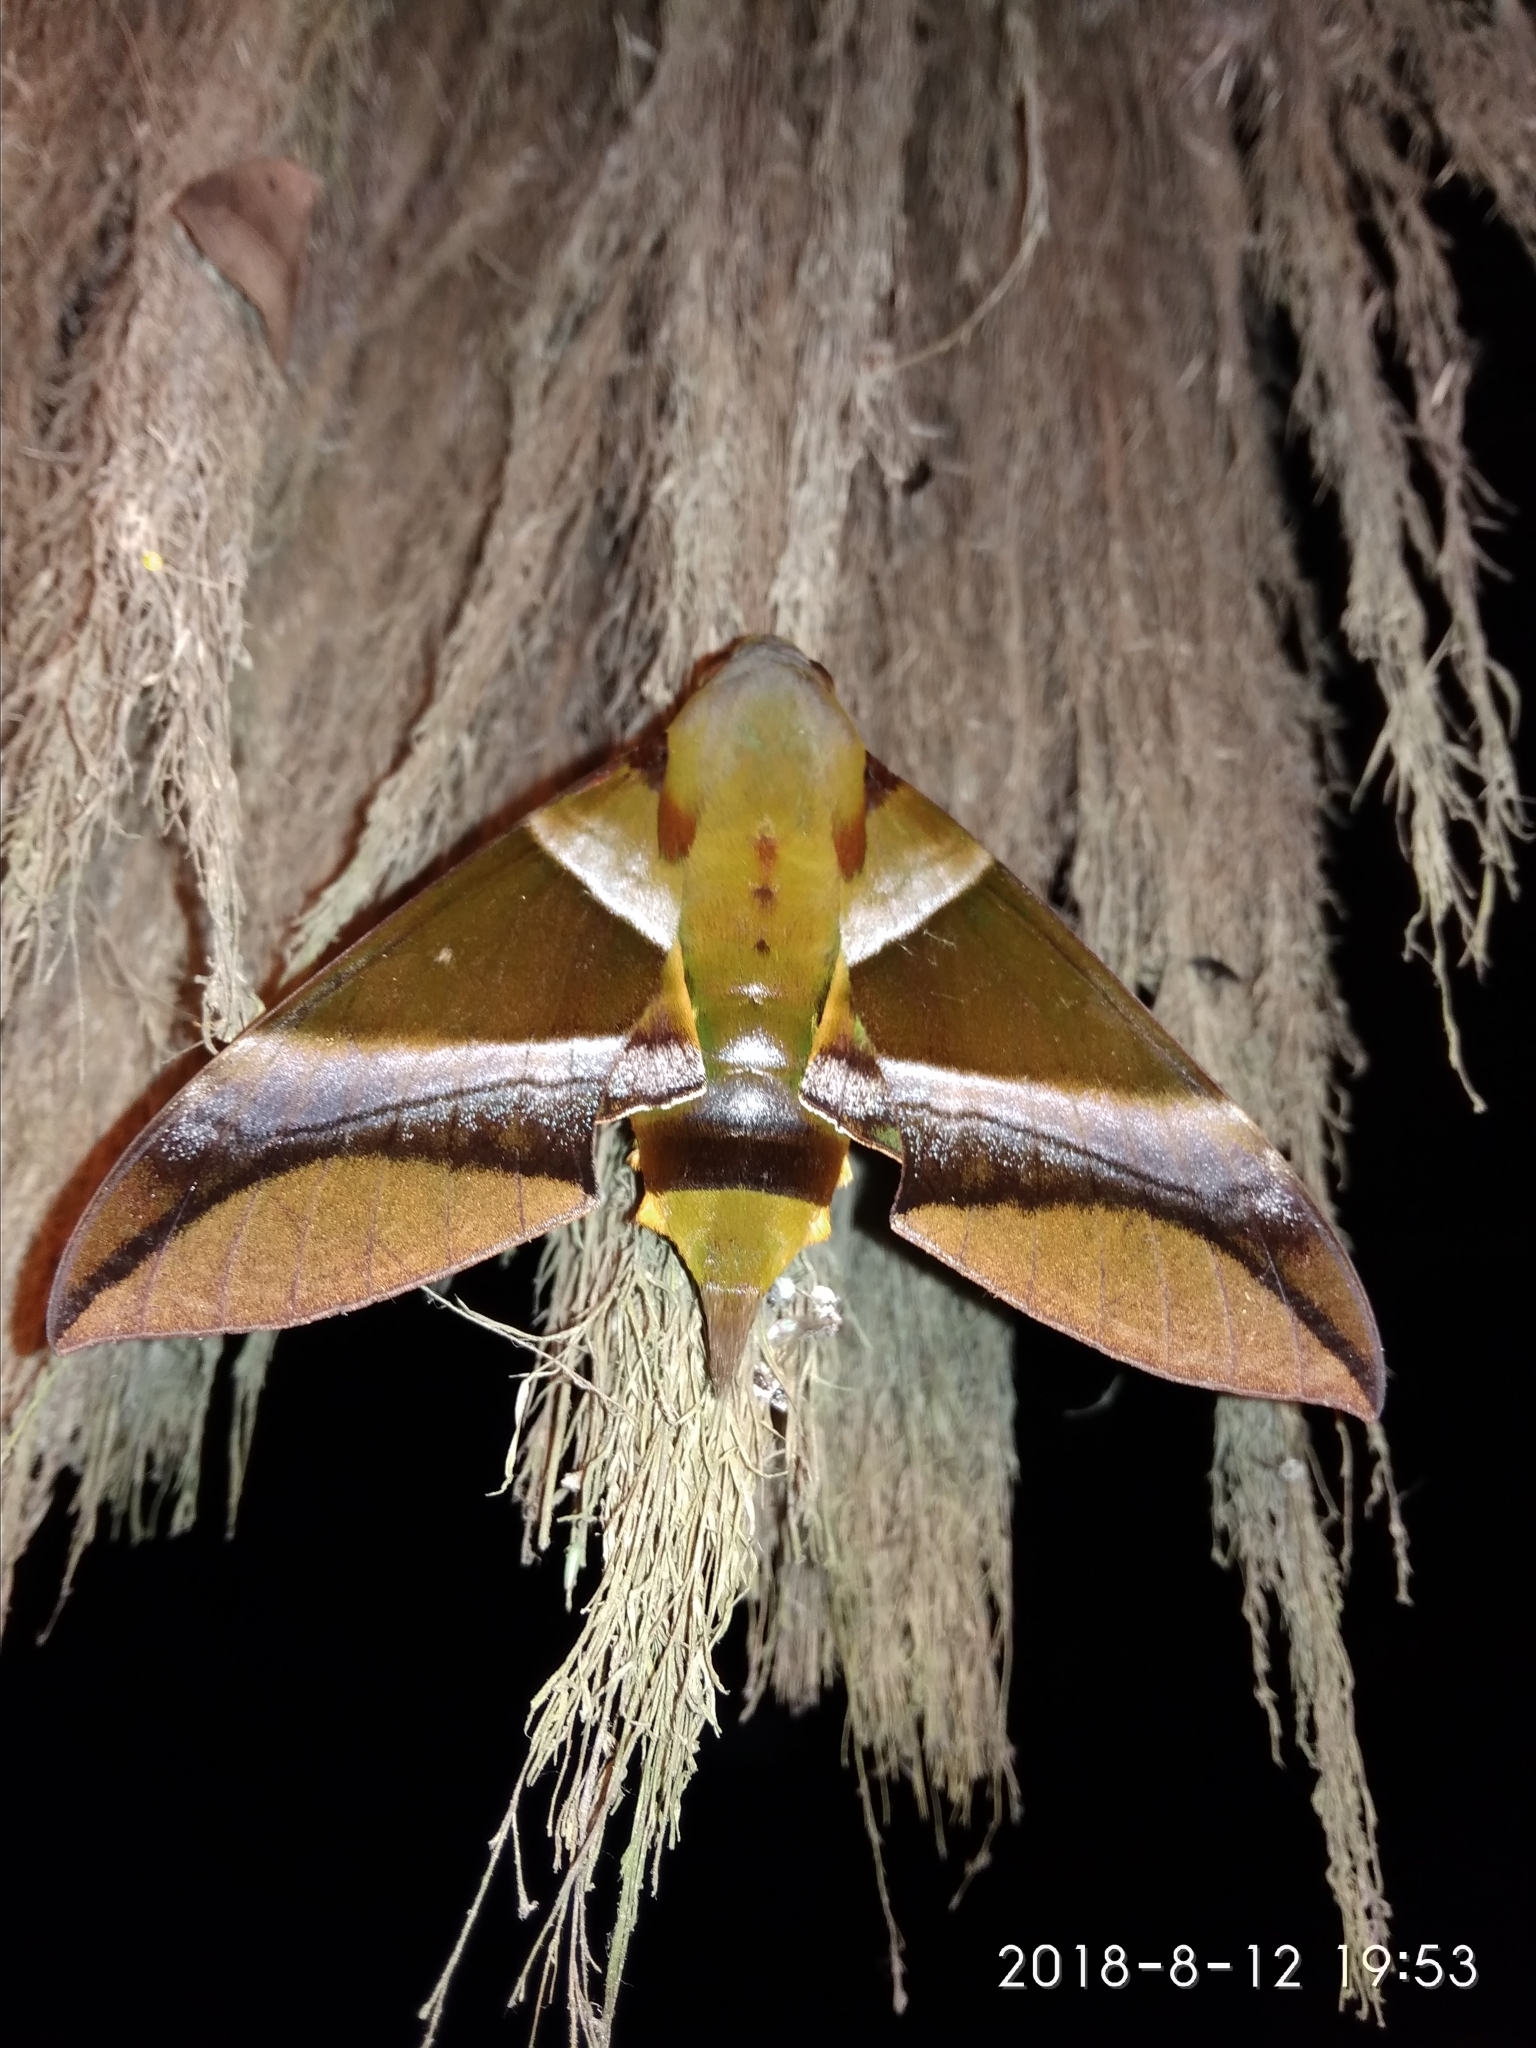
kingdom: Animalia
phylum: Arthropoda
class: Insecta
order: Lepidoptera
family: Sphingidae
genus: Oryba
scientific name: Oryba kadeni
